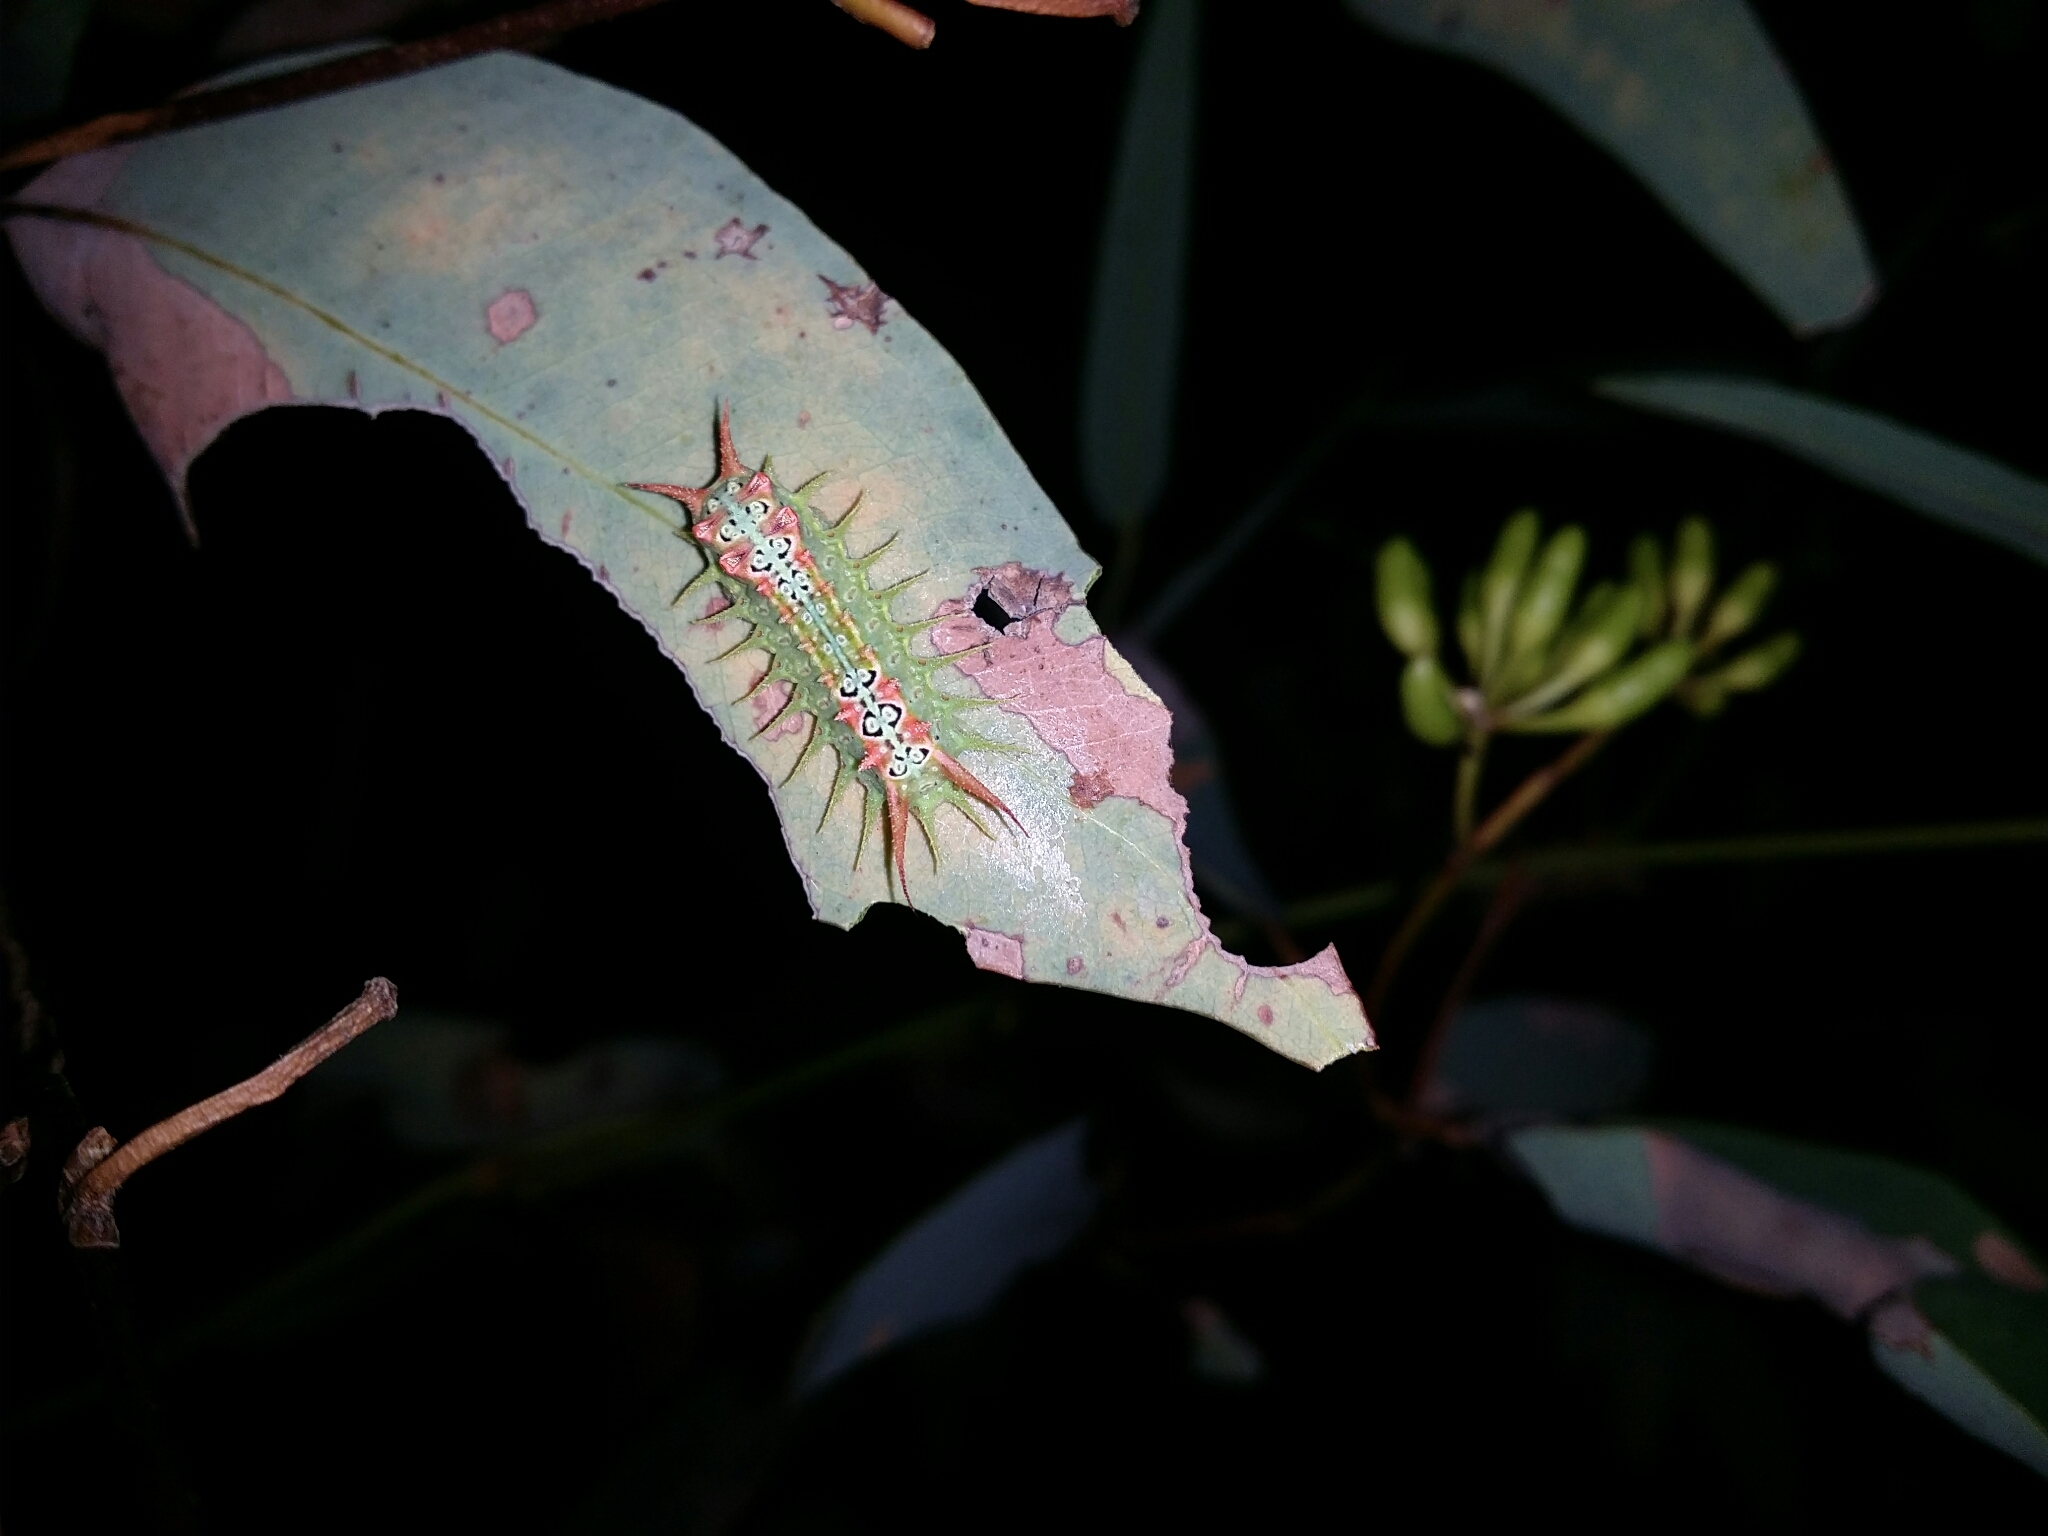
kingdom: Animalia
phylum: Arthropoda
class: Insecta
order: Lepidoptera
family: Limacodidae
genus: Doratifera
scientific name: Doratifera quadriguttata
